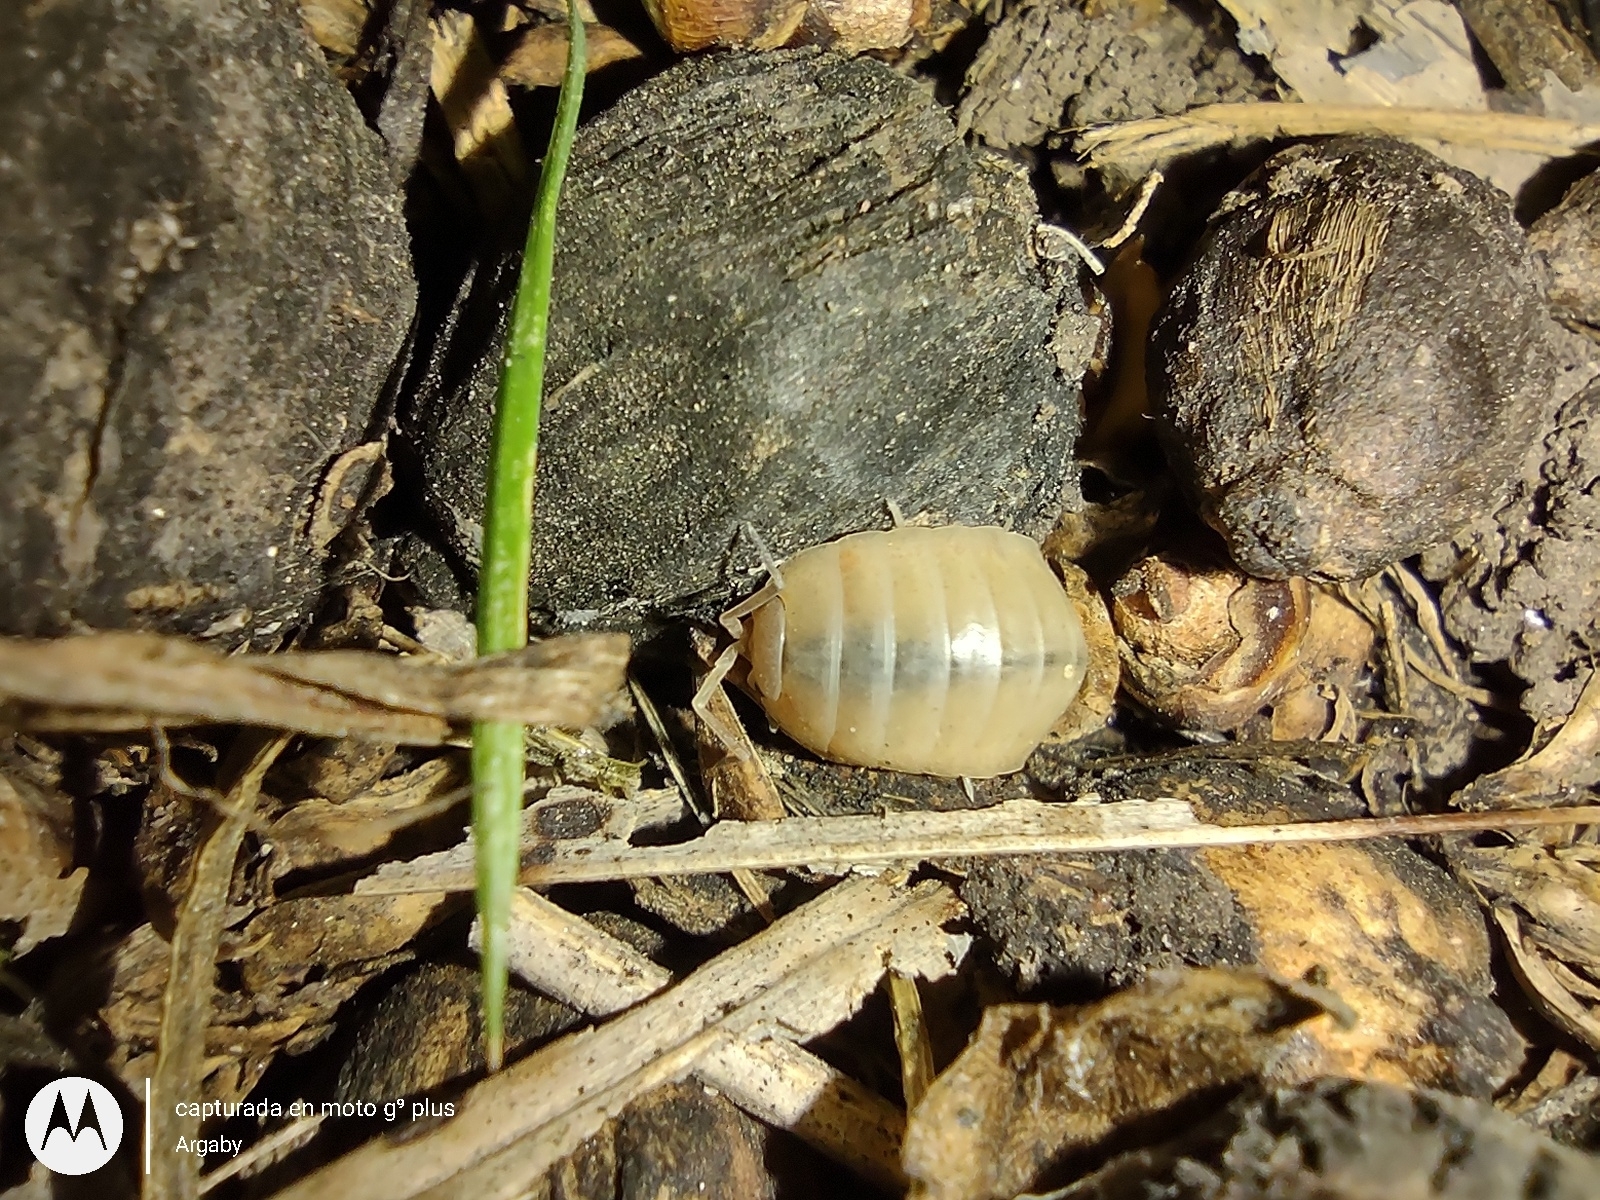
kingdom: Animalia
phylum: Arthropoda
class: Malacostraca
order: Isopoda
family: Porcellionidae
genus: Porcellio
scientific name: Porcellio laevis
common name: Swift woodlouse
